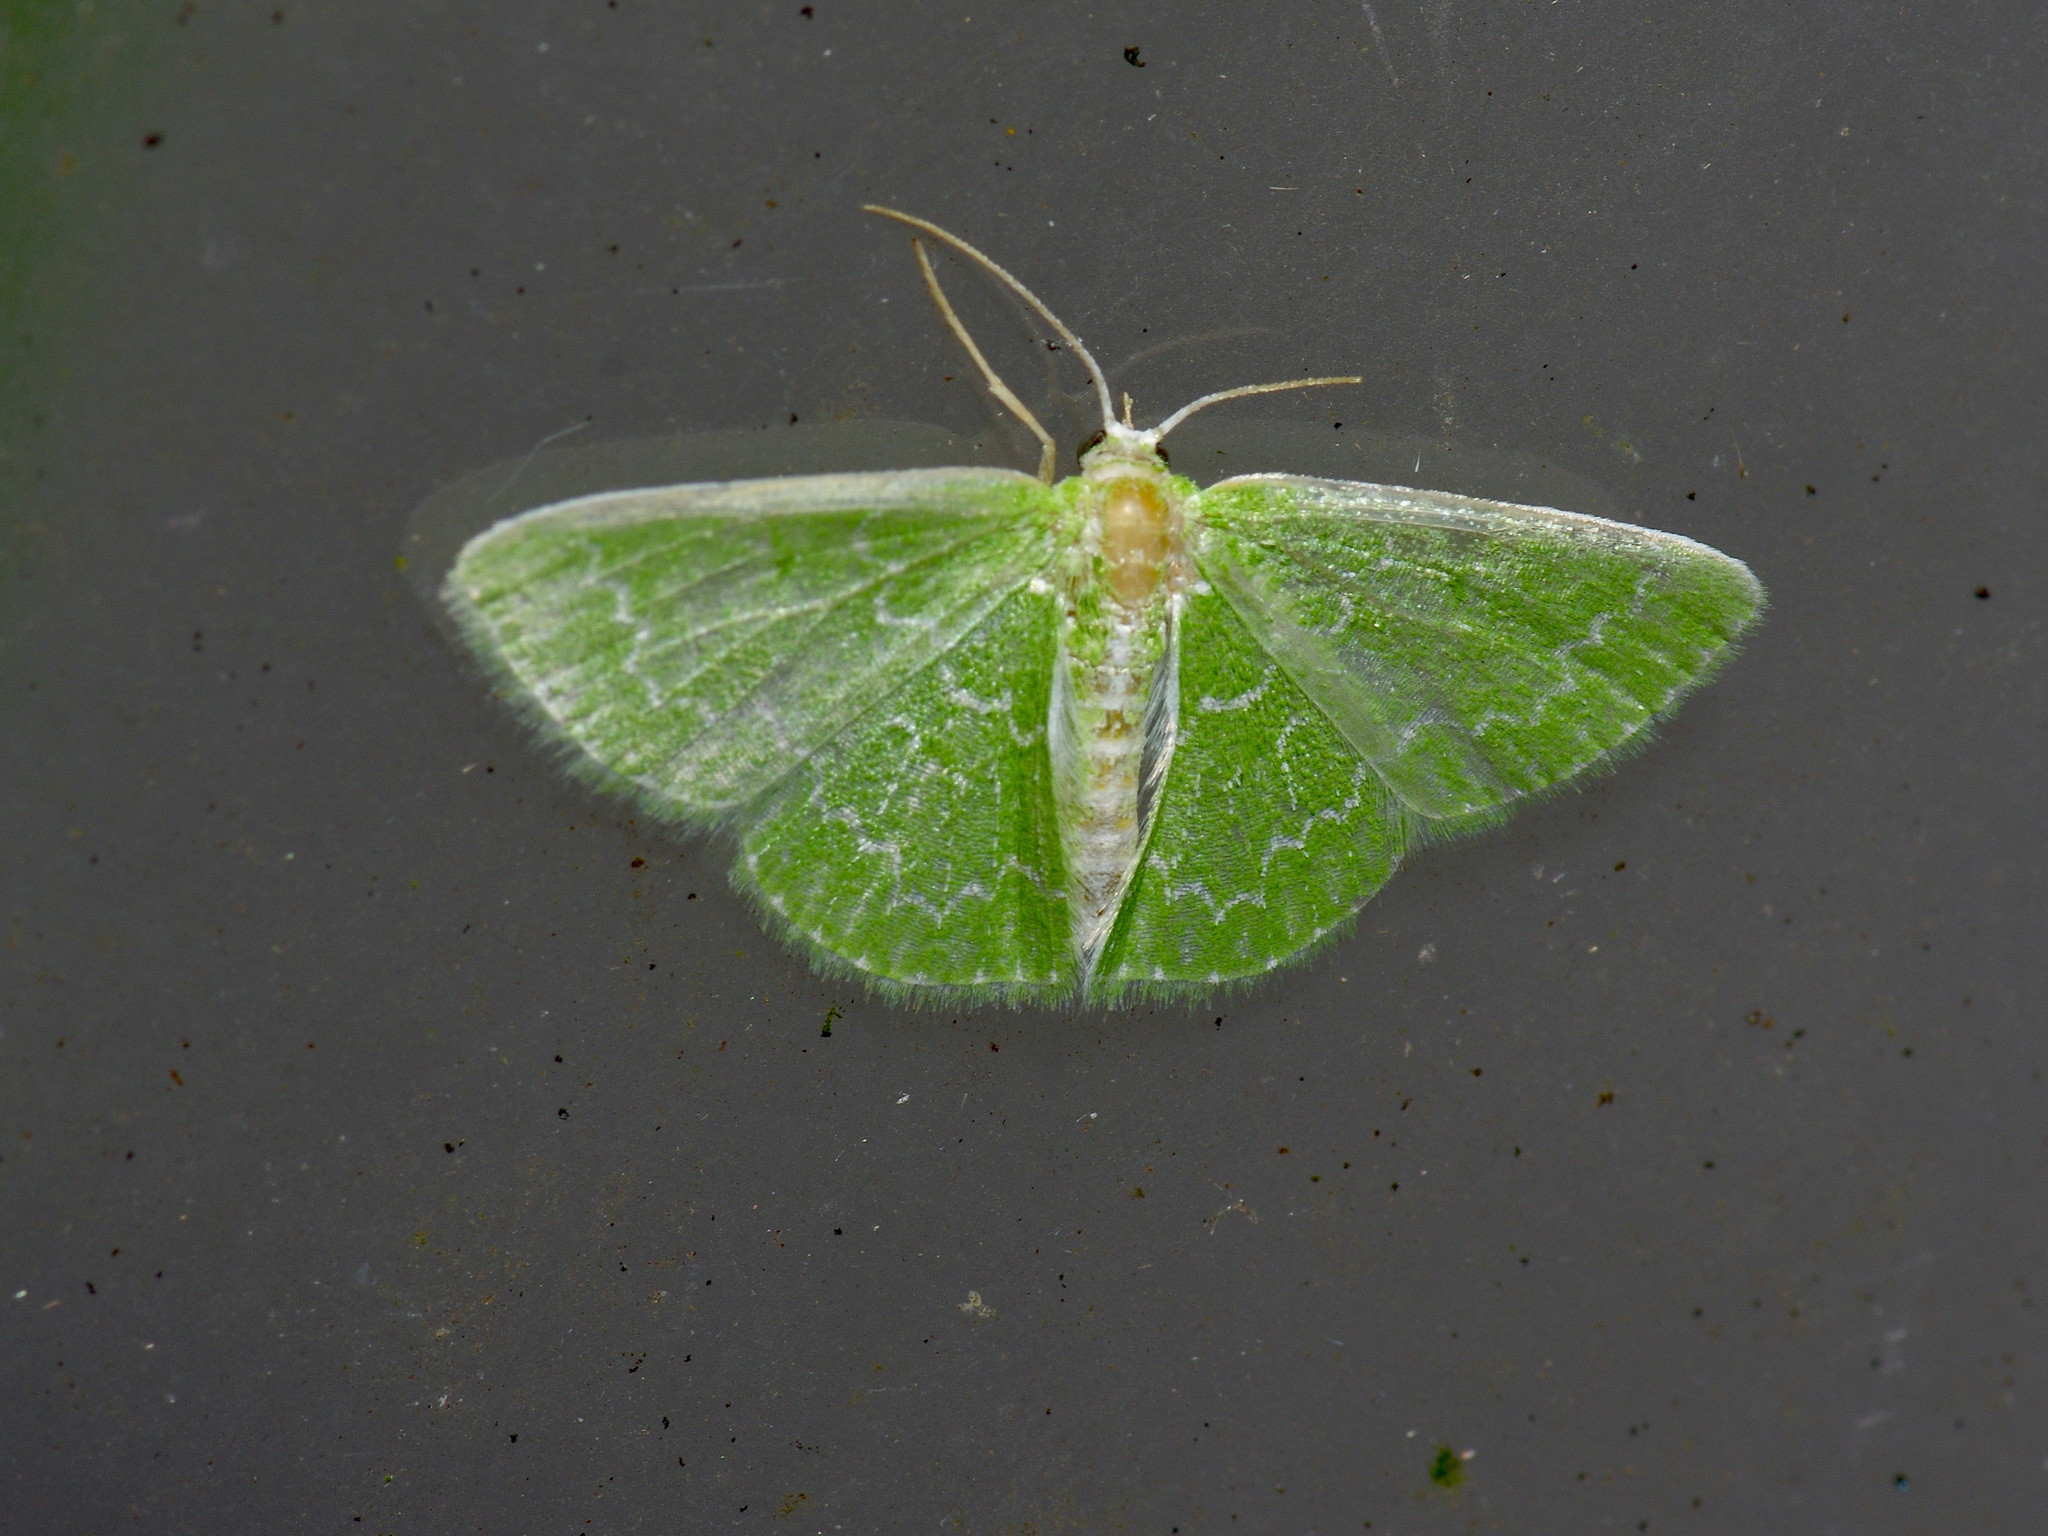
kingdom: Animalia
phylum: Arthropoda
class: Insecta
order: Lepidoptera
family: Geometridae
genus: Synchlora
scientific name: Synchlora frondaria
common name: Southern emerald
